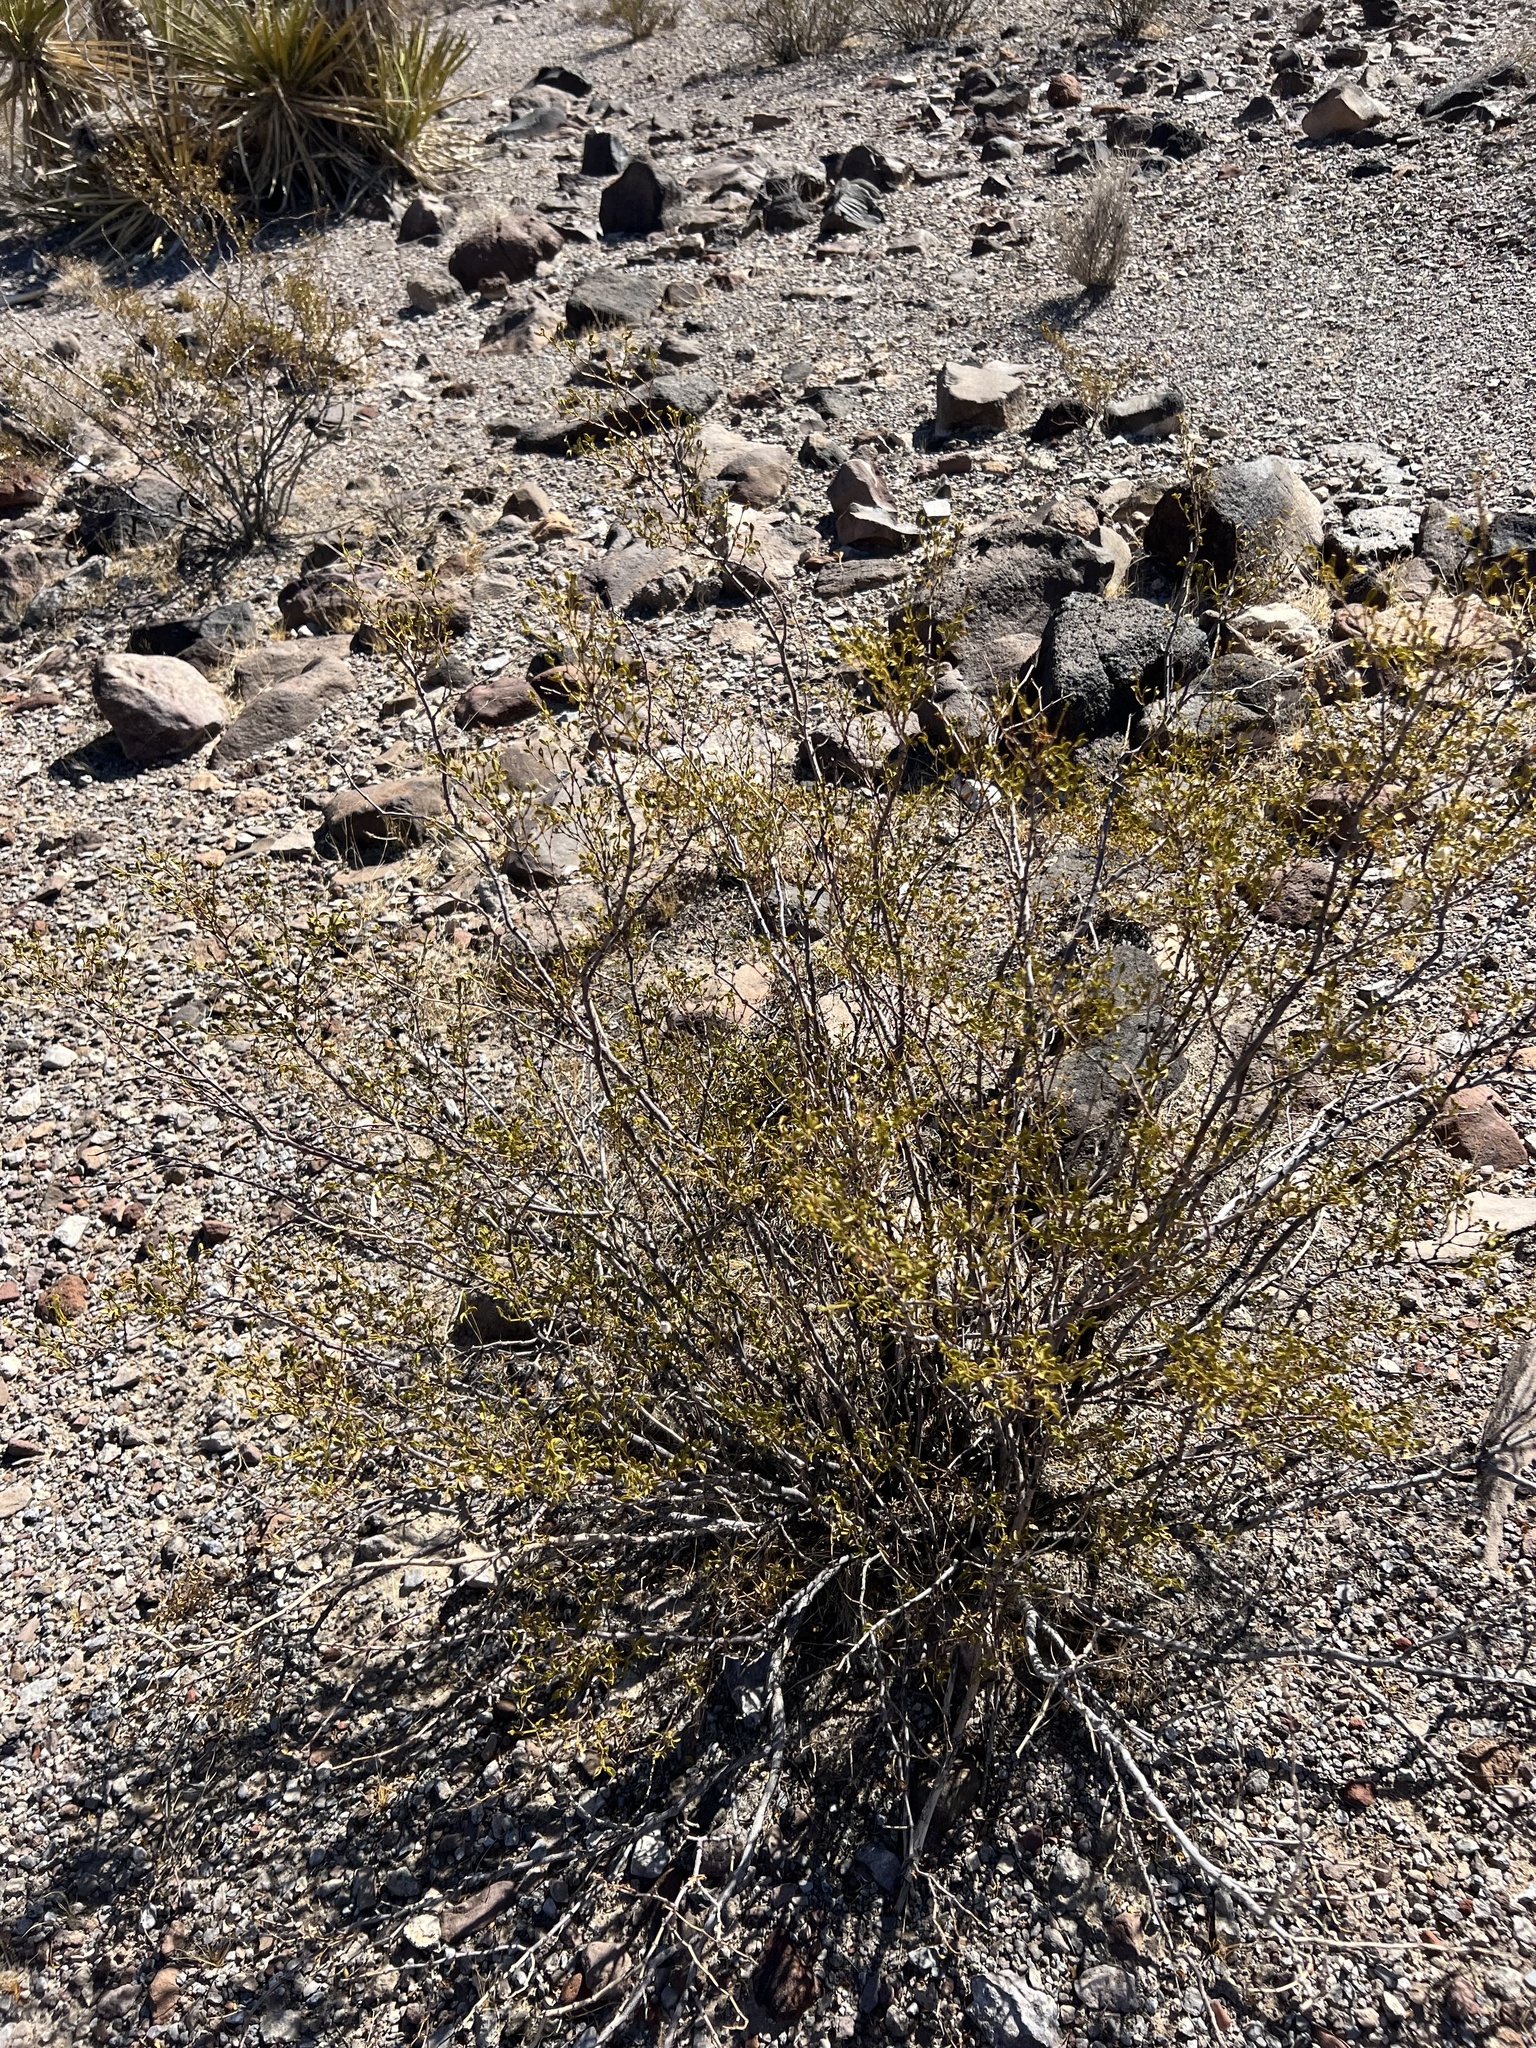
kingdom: Plantae
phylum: Tracheophyta
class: Magnoliopsida
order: Zygophyllales
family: Zygophyllaceae
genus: Larrea
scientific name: Larrea tridentata
